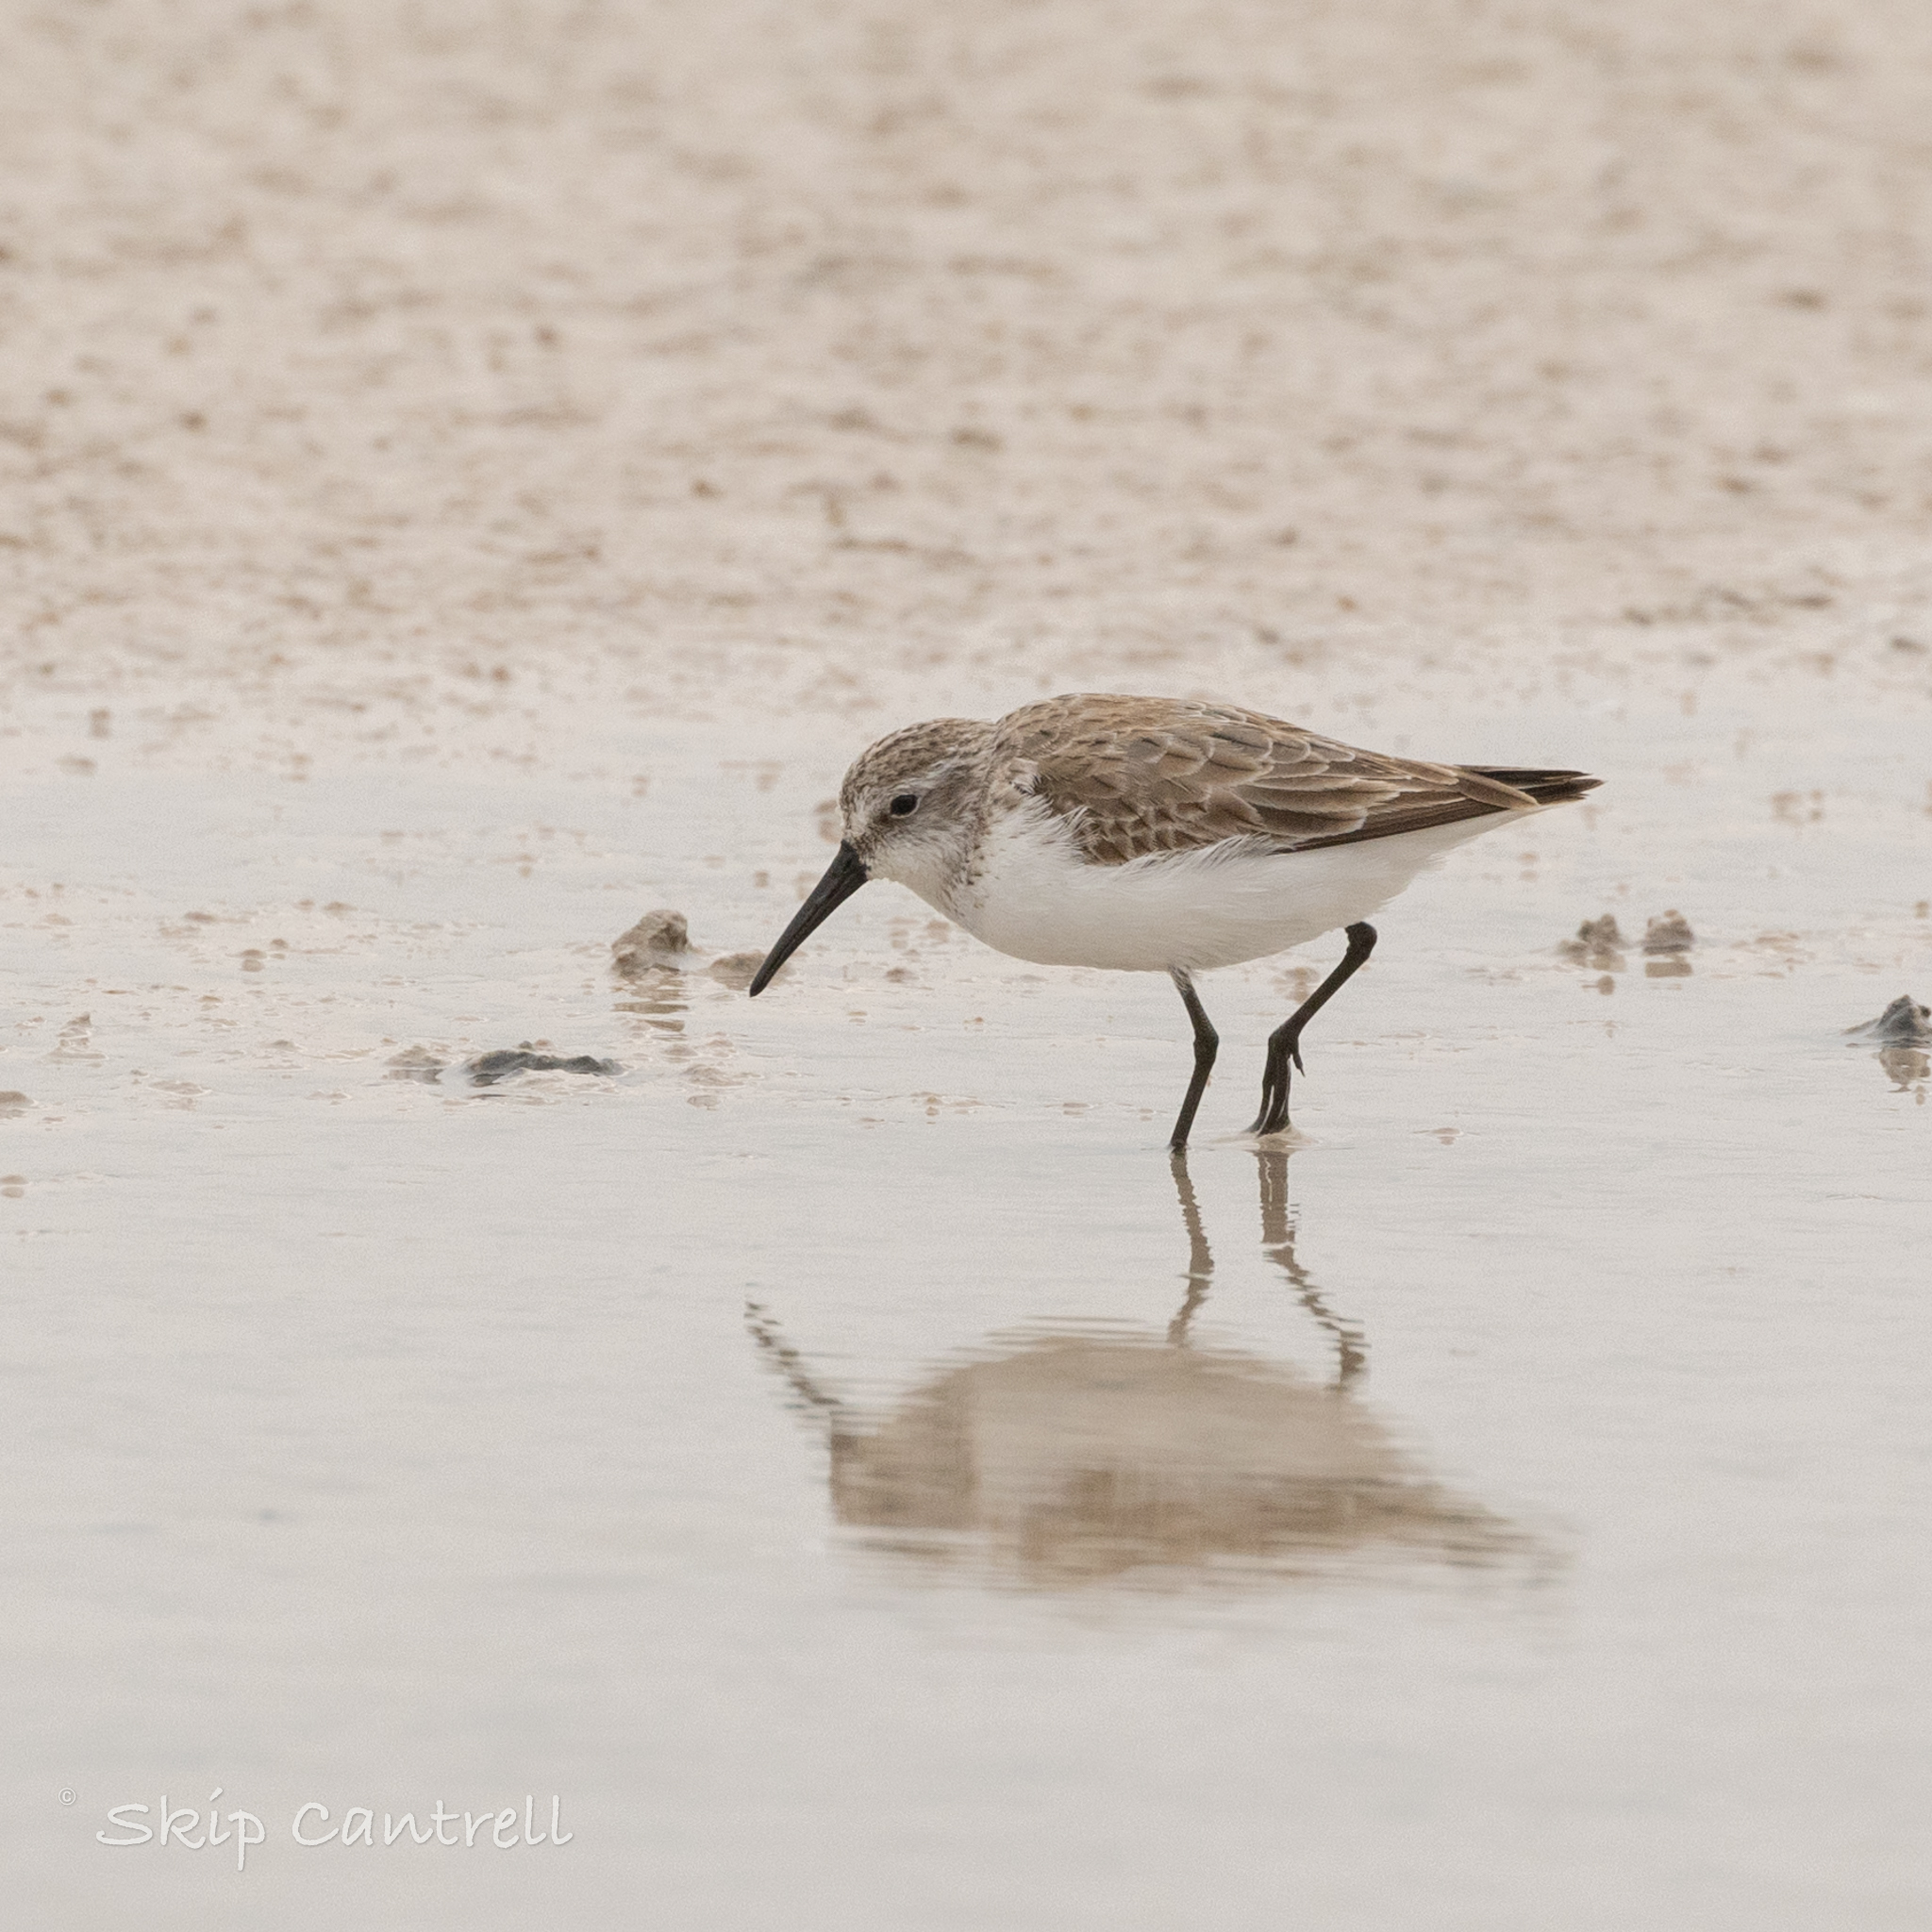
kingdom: Animalia
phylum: Chordata
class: Aves
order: Charadriiformes
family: Scolopacidae
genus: Calidris
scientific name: Calidris mauri
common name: Western sandpiper
